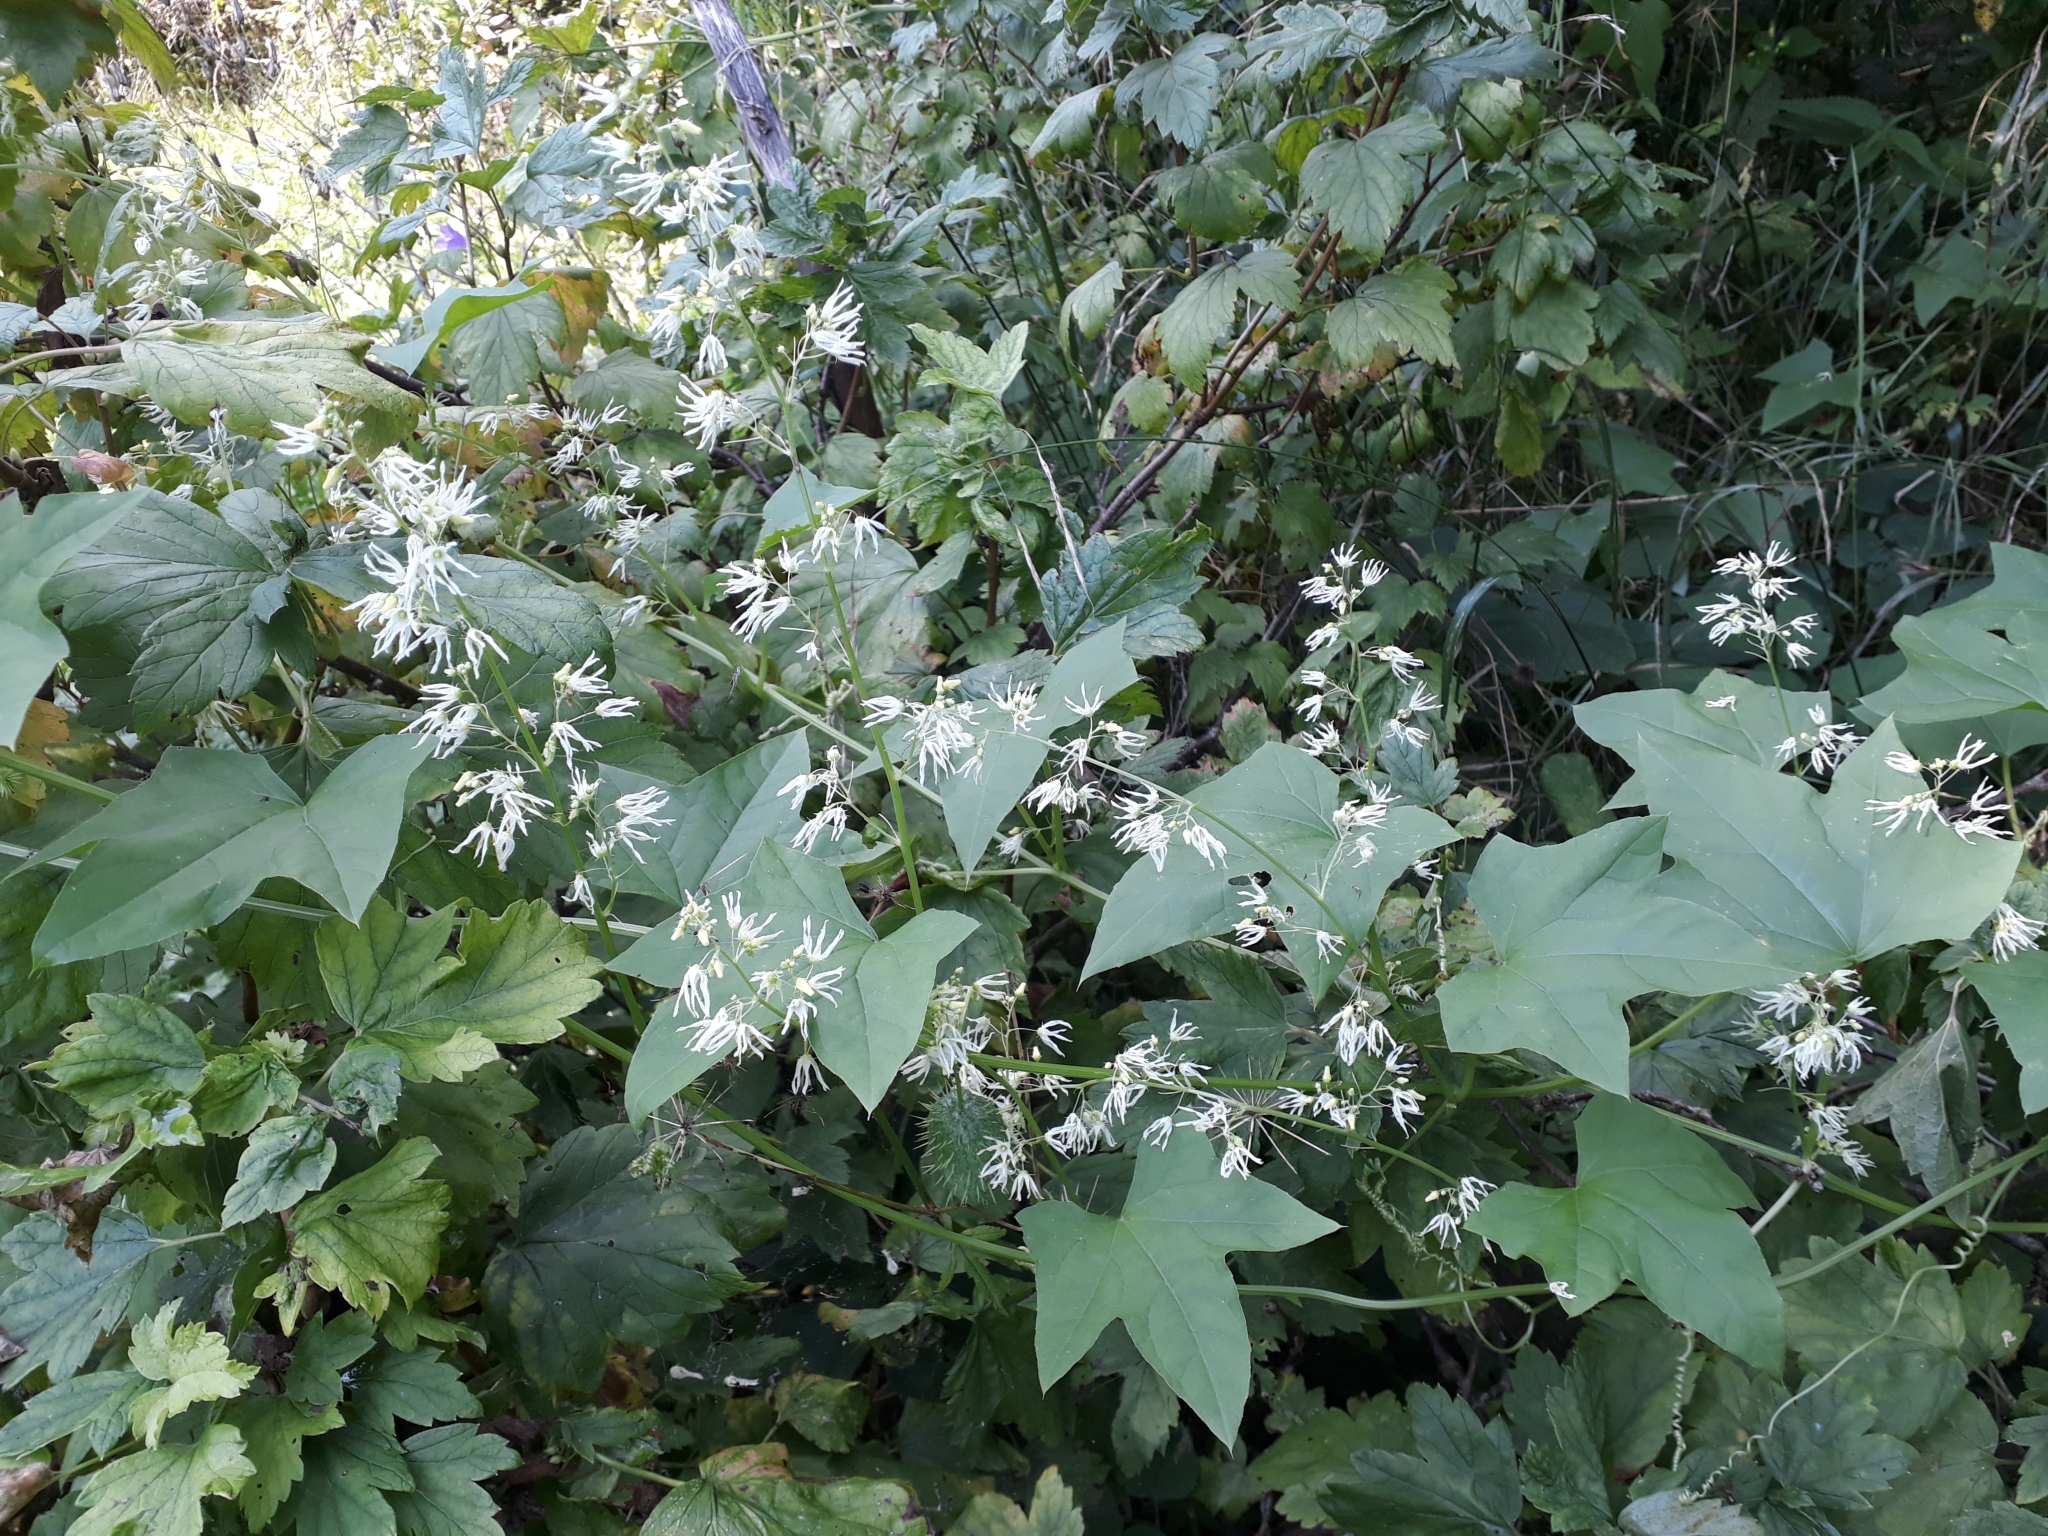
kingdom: Plantae
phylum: Tracheophyta
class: Magnoliopsida
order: Cucurbitales
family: Cucurbitaceae
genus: Echinocystis
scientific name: Echinocystis lobata
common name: Wild cucumber
